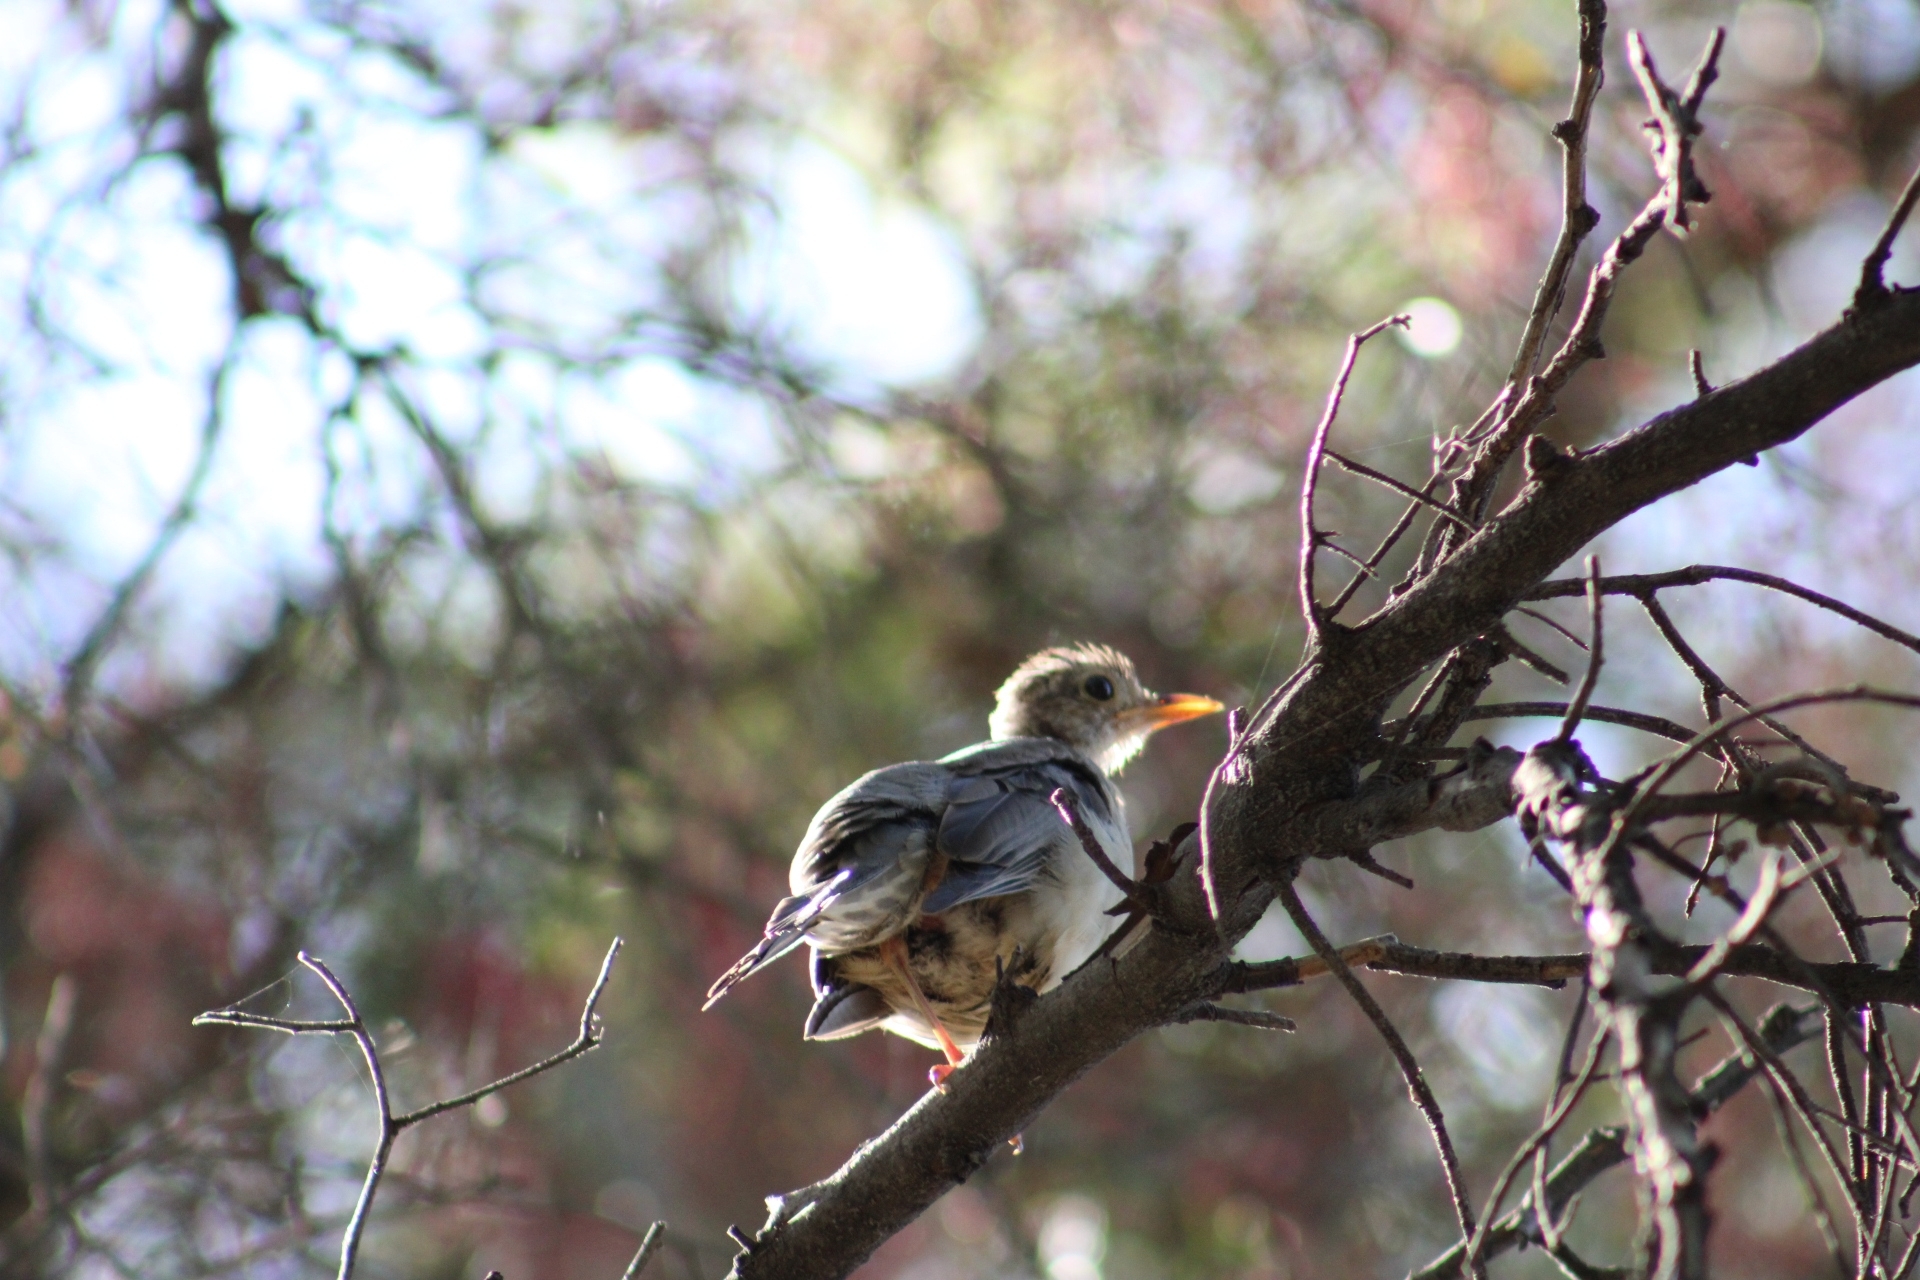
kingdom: Animalia
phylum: Chordata
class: Aves
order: Passeriformes
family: Turdidae
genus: Turdus
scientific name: Turdus falcklandii
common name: Austral thrush
